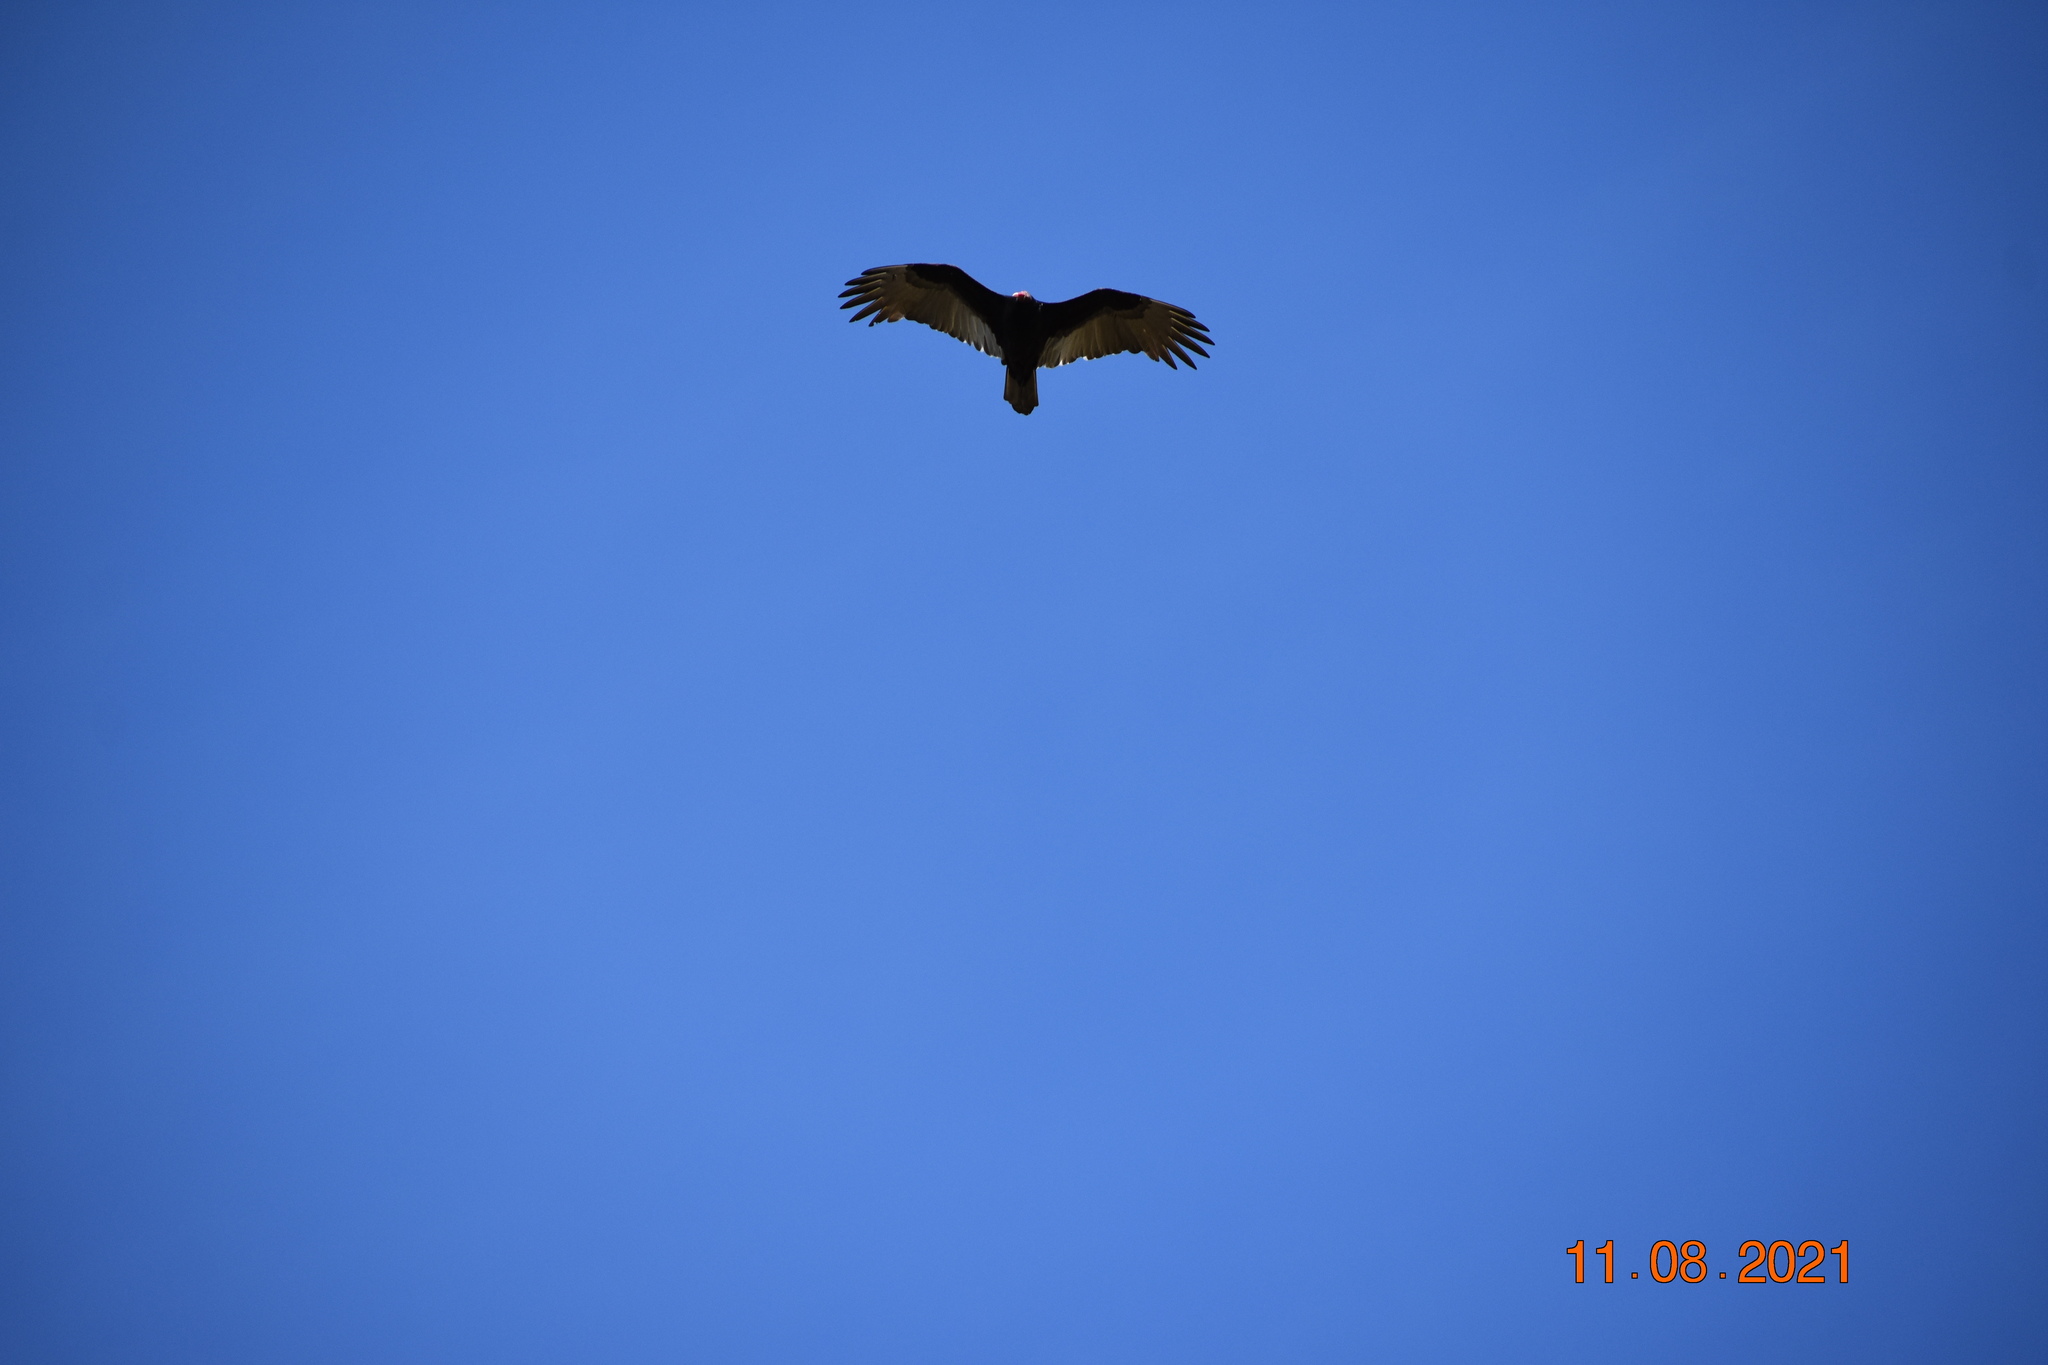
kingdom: Animalia
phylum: Chordata
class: Aves
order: Accipitriformes
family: Cathartidae
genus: Cathartes
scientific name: Cathartes aura
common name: Turkey vulture
